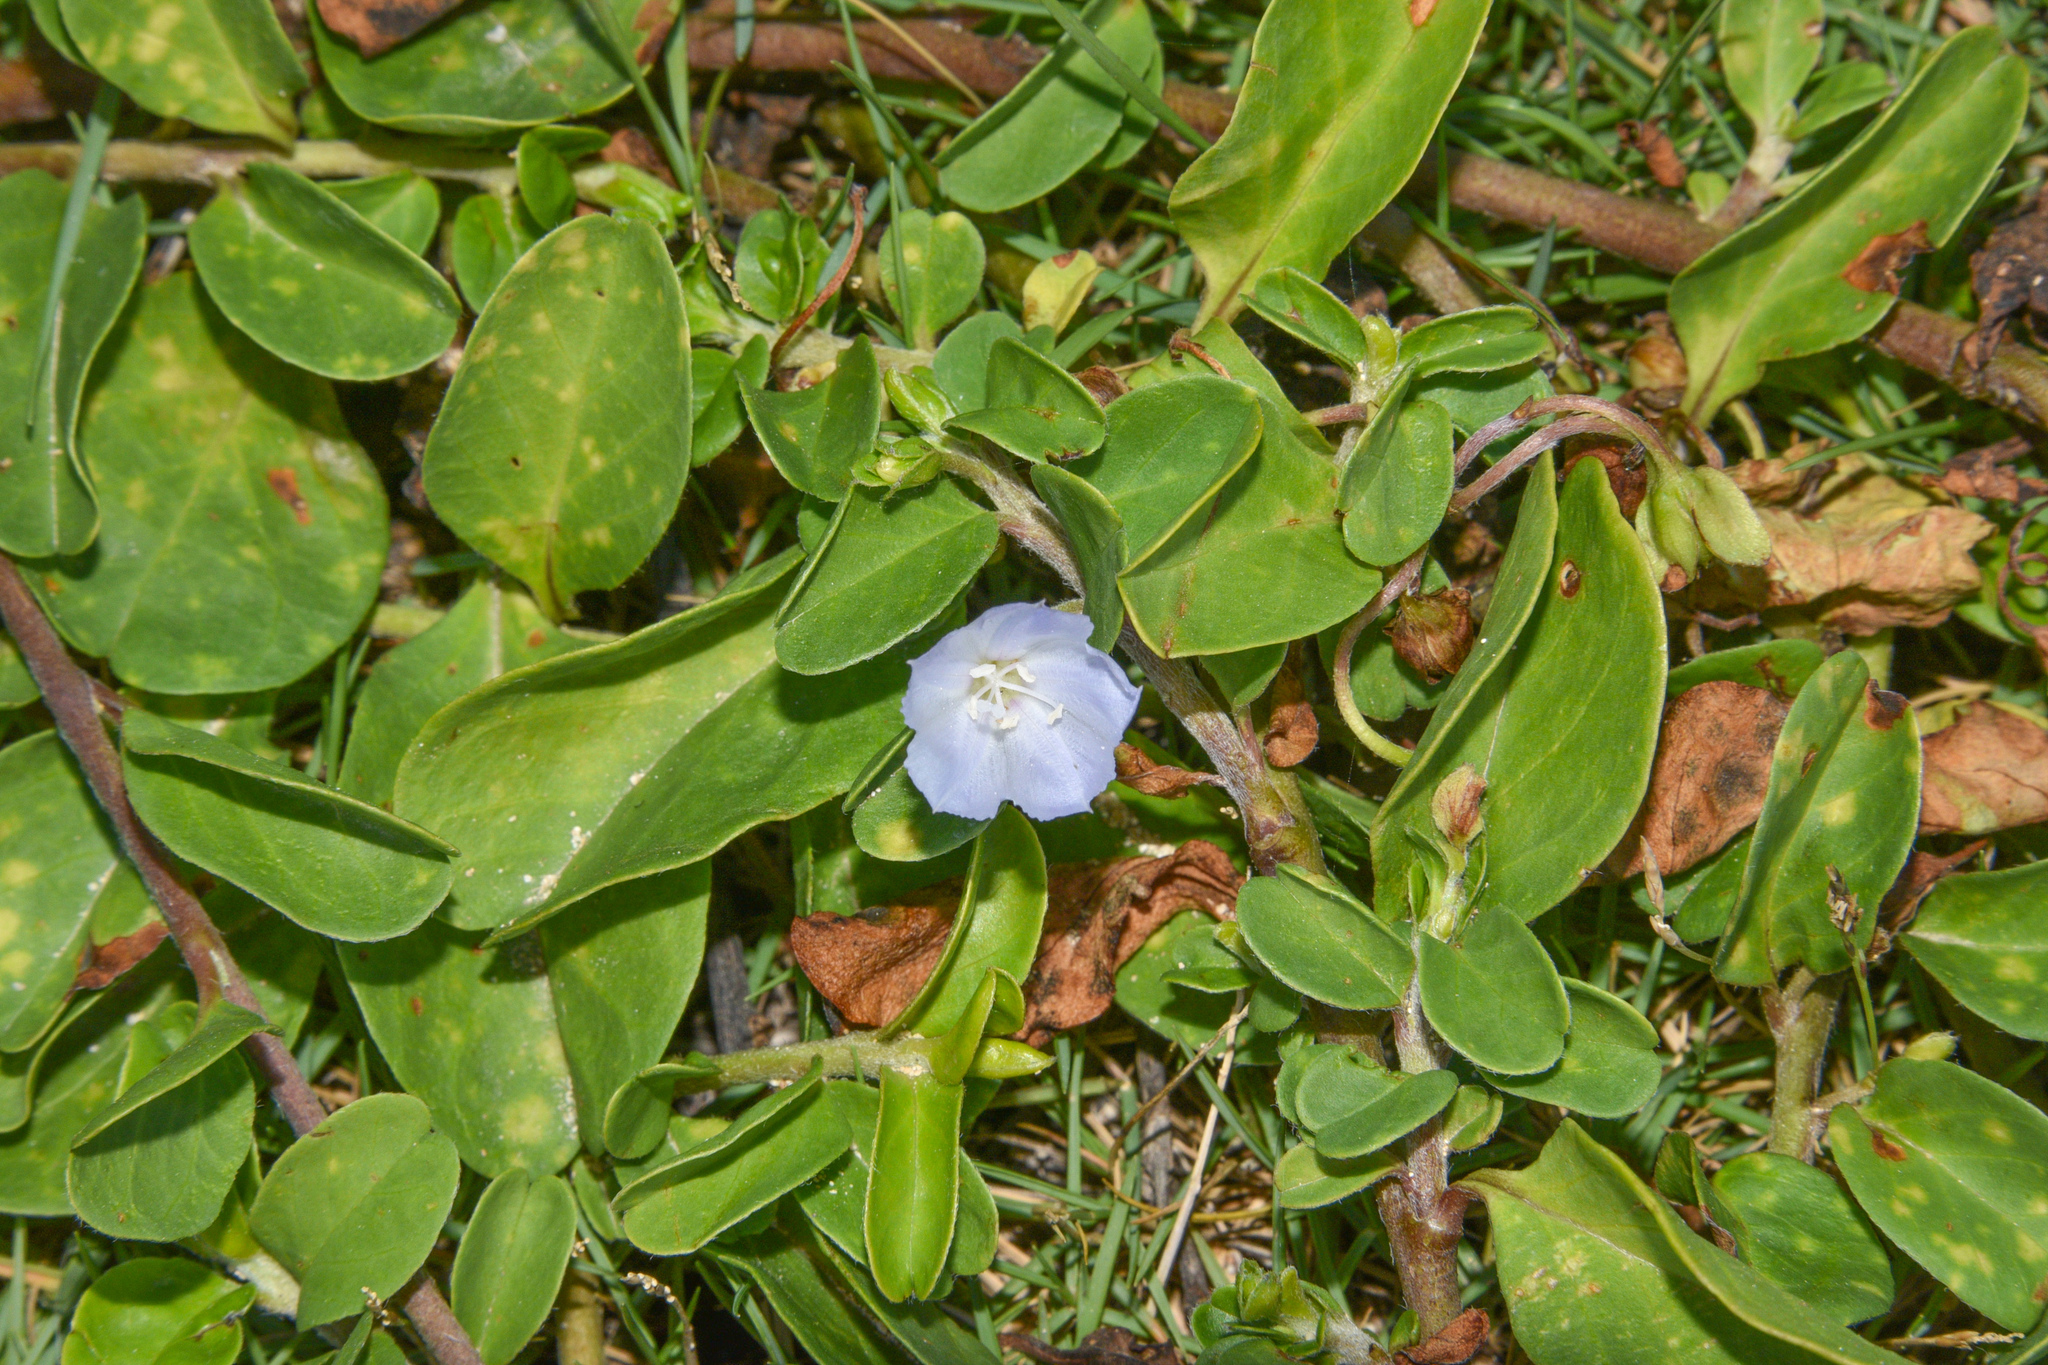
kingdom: Plantae
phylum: Tracheophyta
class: Magnoliopsida
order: Solanales
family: Convolvulaceae
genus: Jacquemontia
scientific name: Jacquemontia sandwicensis
